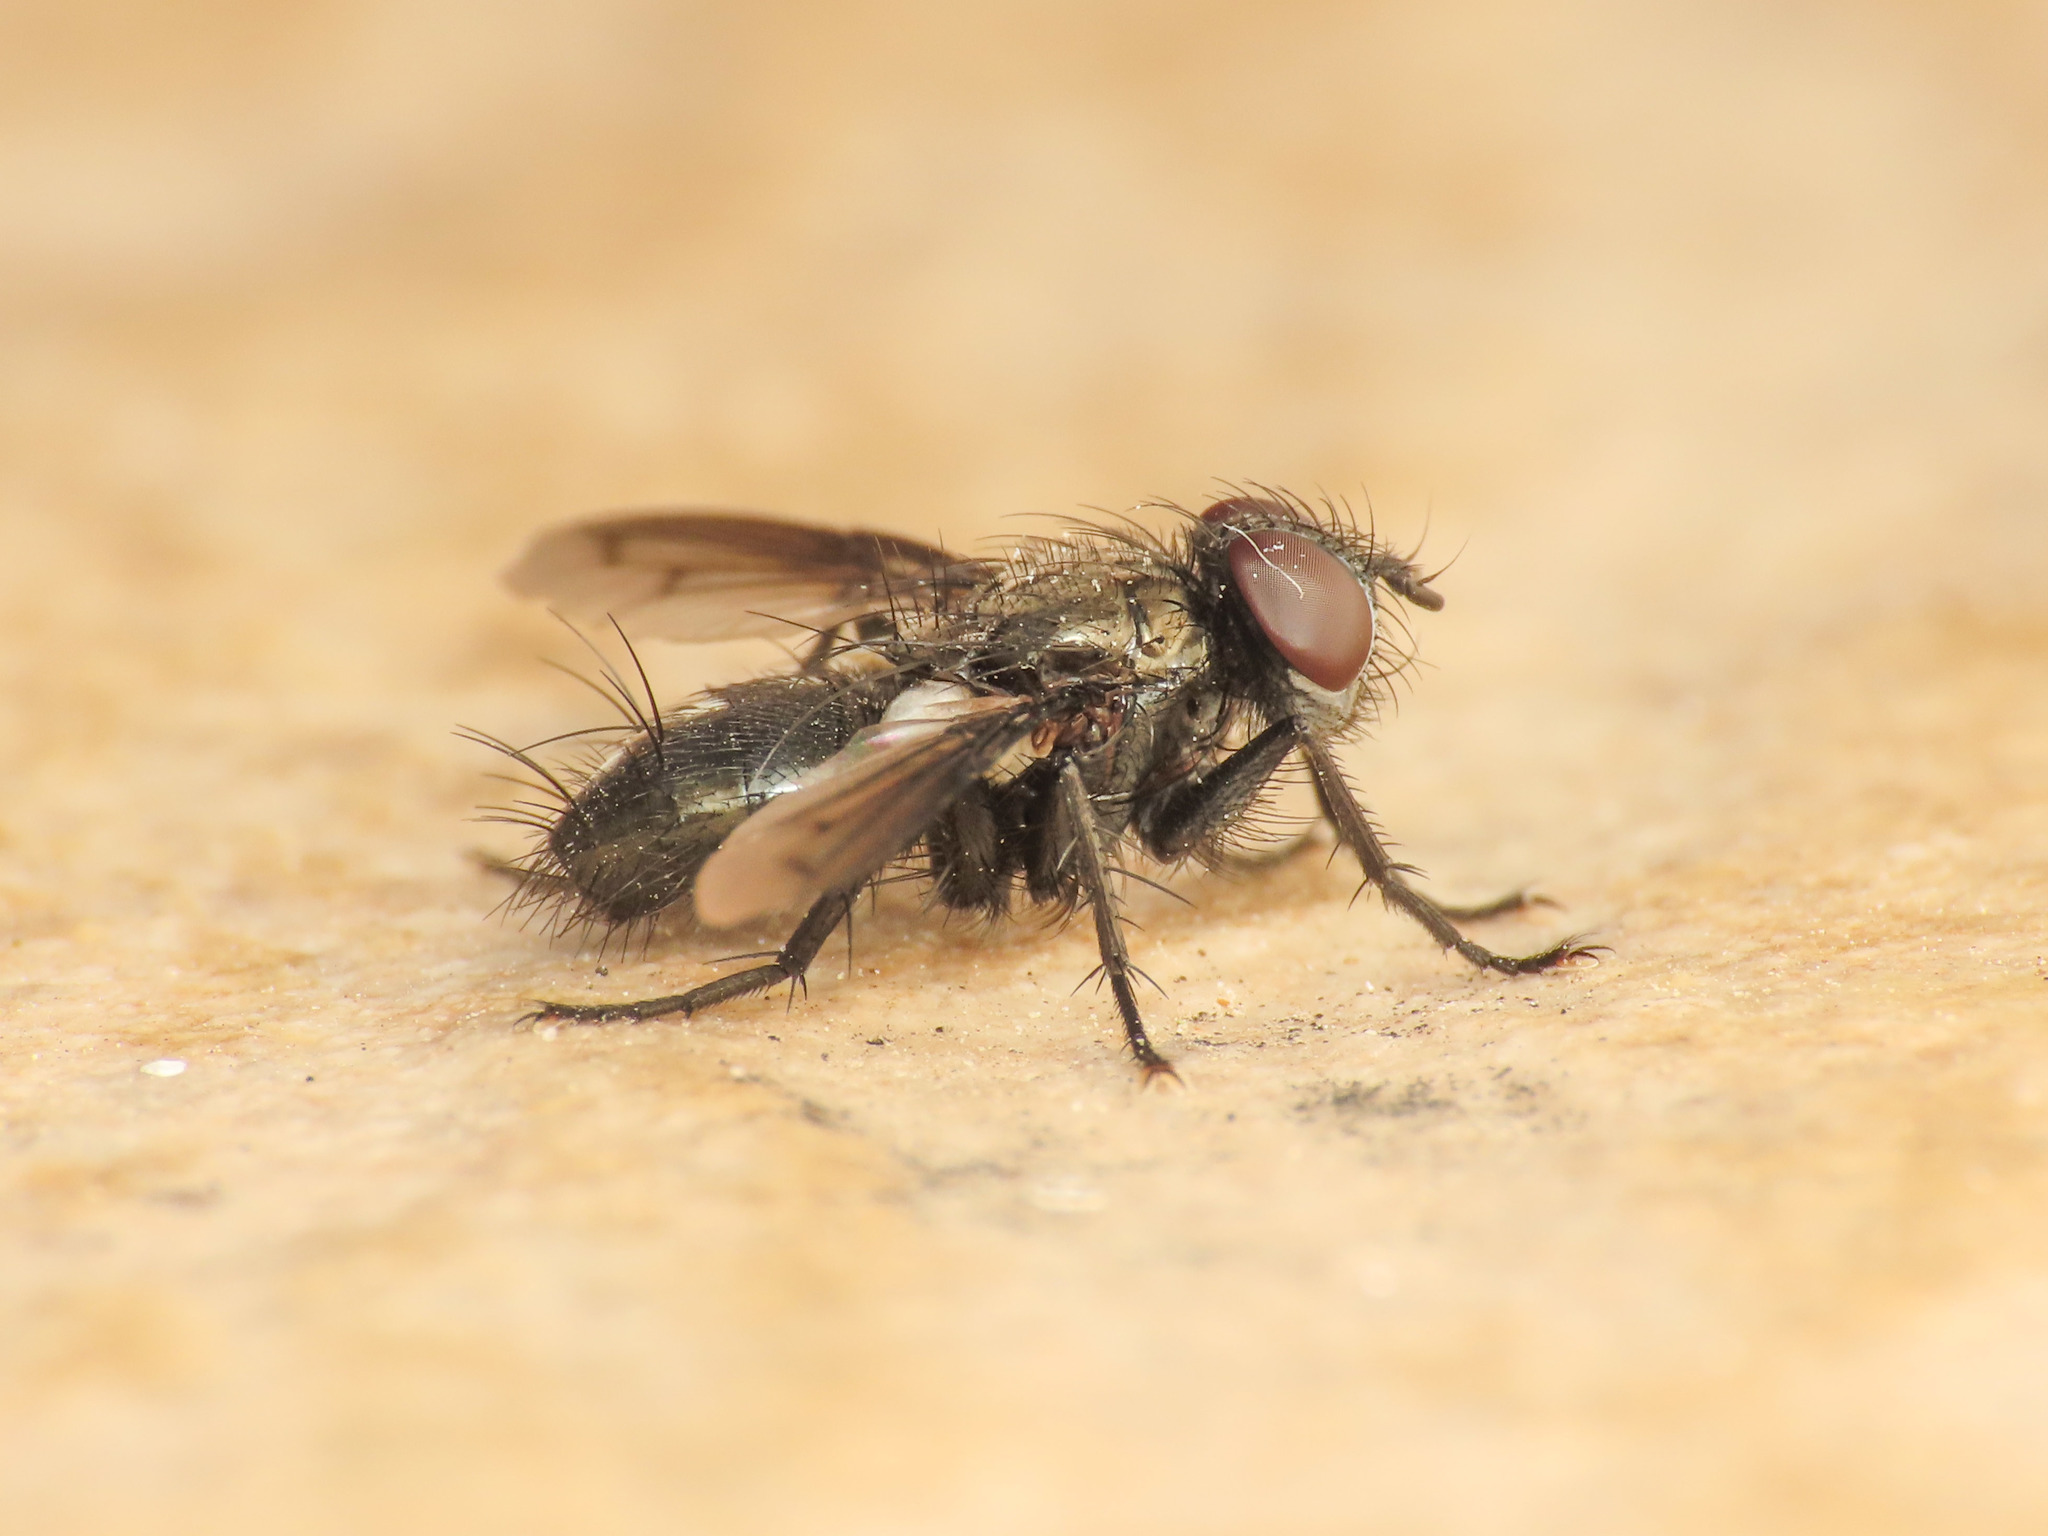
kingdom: Animalia
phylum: Arthropoda
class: Insecta
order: Diptera
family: Tachinidae
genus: Kirbya
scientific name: Kirbya moerens
